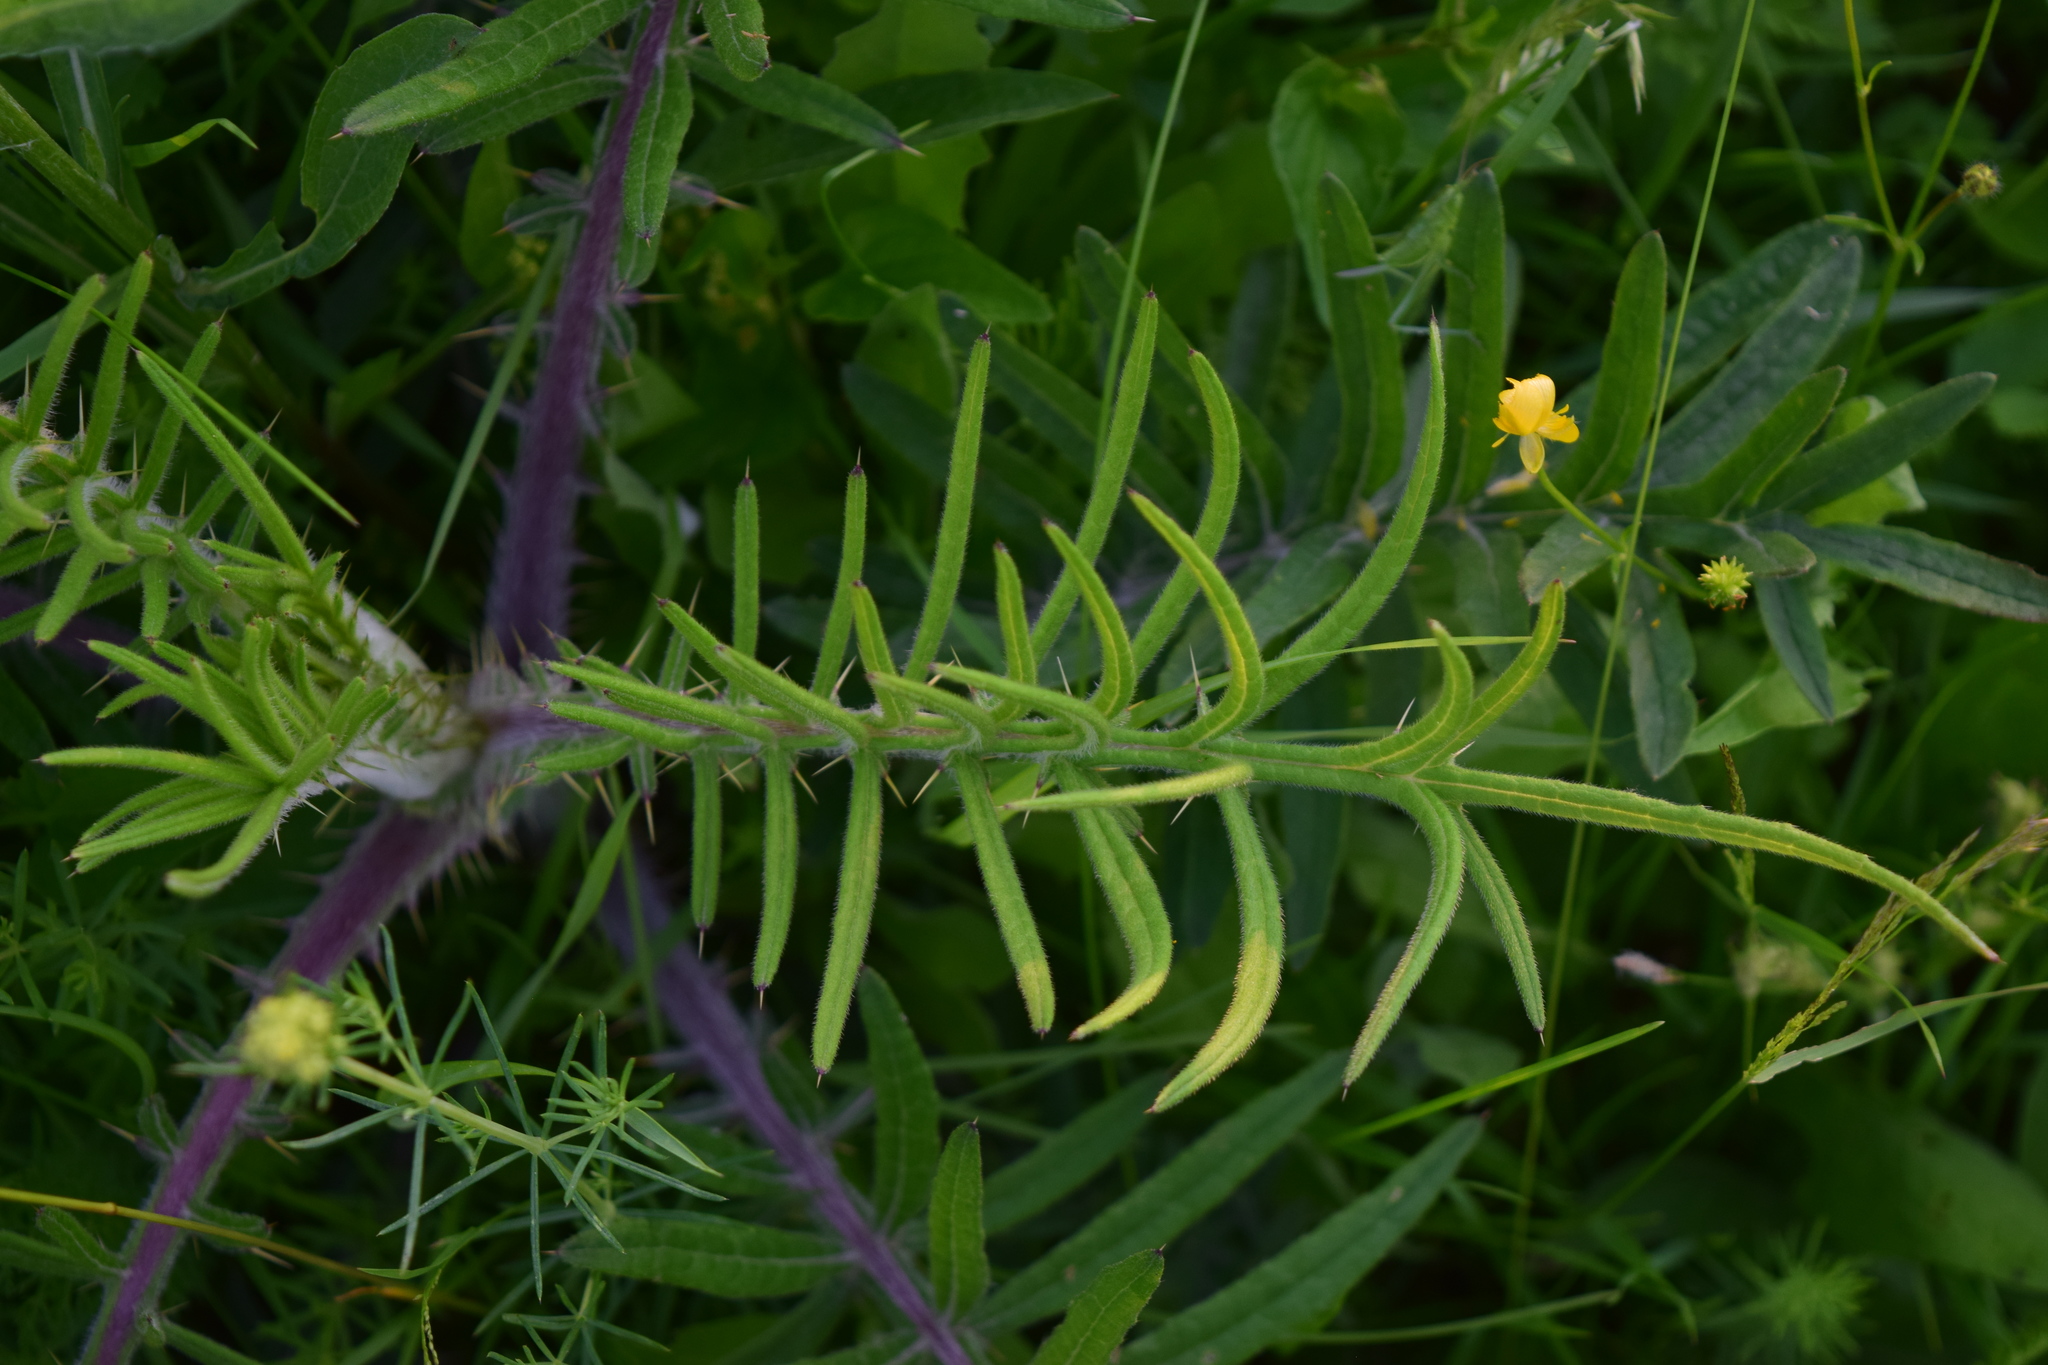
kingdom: Plantae
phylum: Tracheophyta
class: Magnoliopsida
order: Asterales
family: Asteraceae
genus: Lophiolepis
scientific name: Lophiolepis decussata
